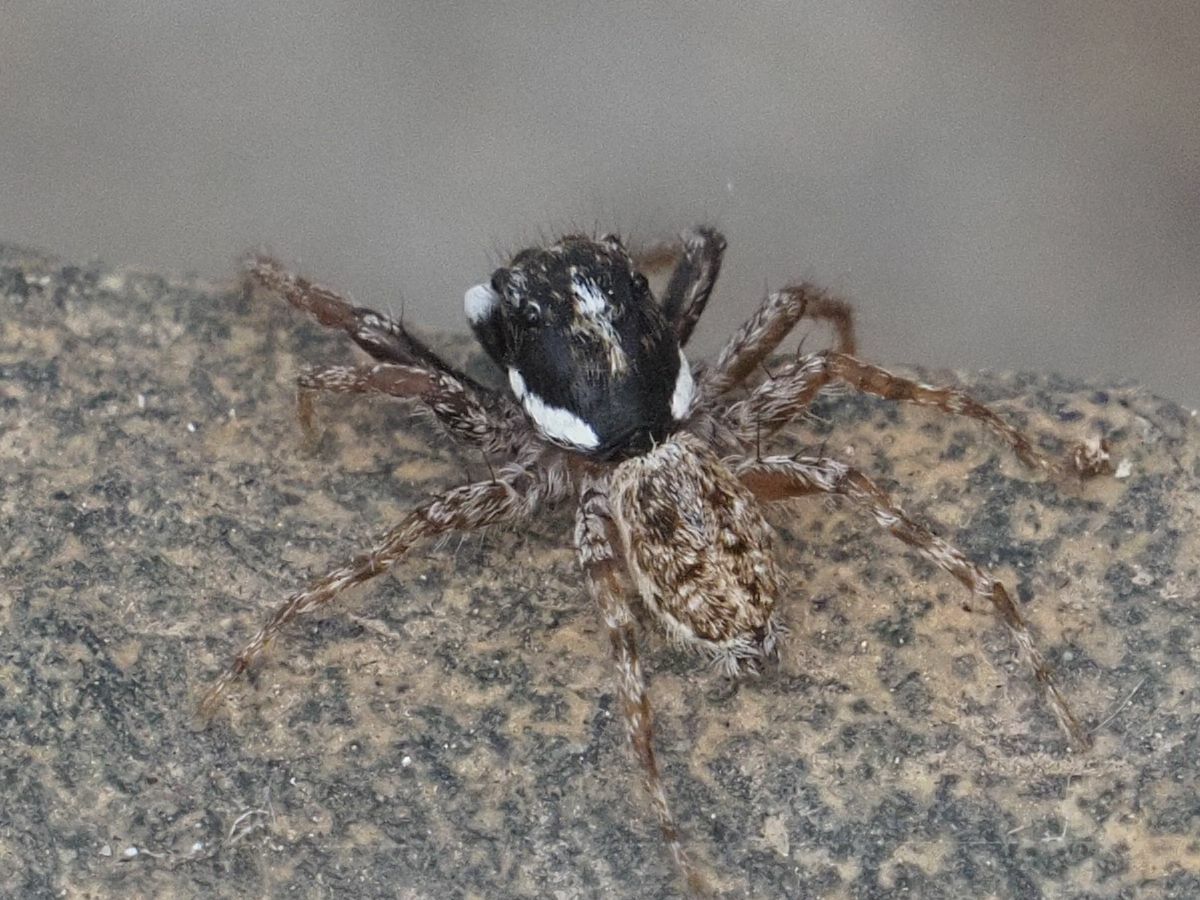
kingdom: Animalia
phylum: Arthropoda
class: Arachnida
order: Araneae
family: Salticidae
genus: Menemerus
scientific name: Menemerus semilimbatus
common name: Jumping spider
